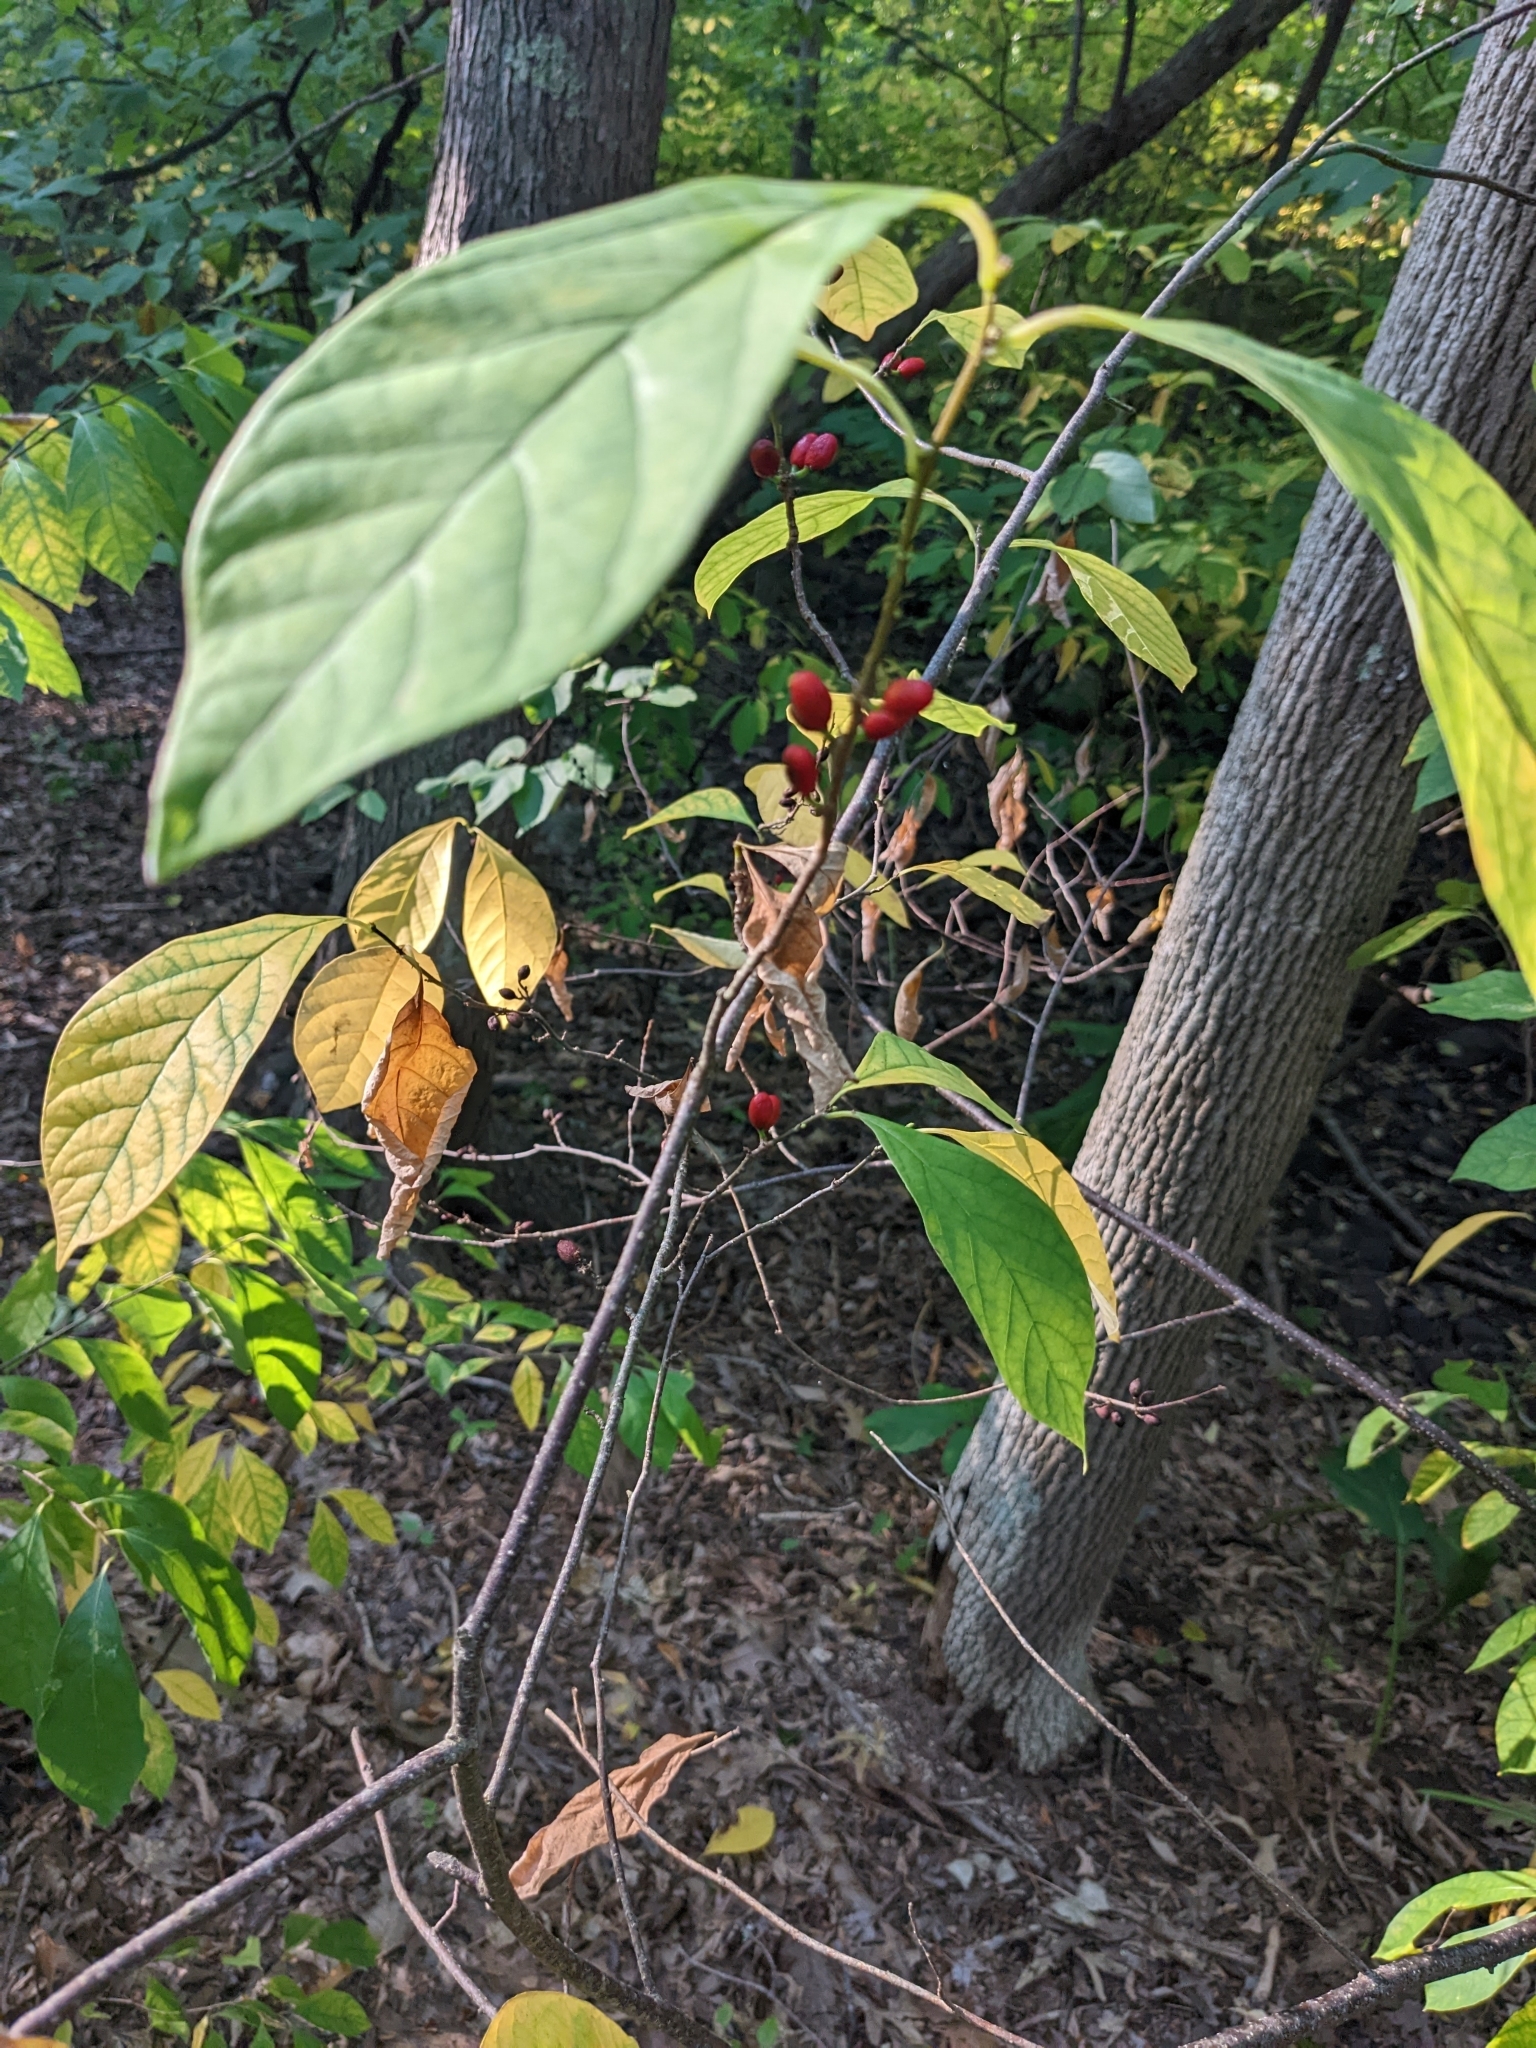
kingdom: Plantae
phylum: Tracheophyta
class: Magnoliopsida
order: Laurales
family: Lauraceae
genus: Lindera
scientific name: Lindera benzoin
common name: Spicebush
